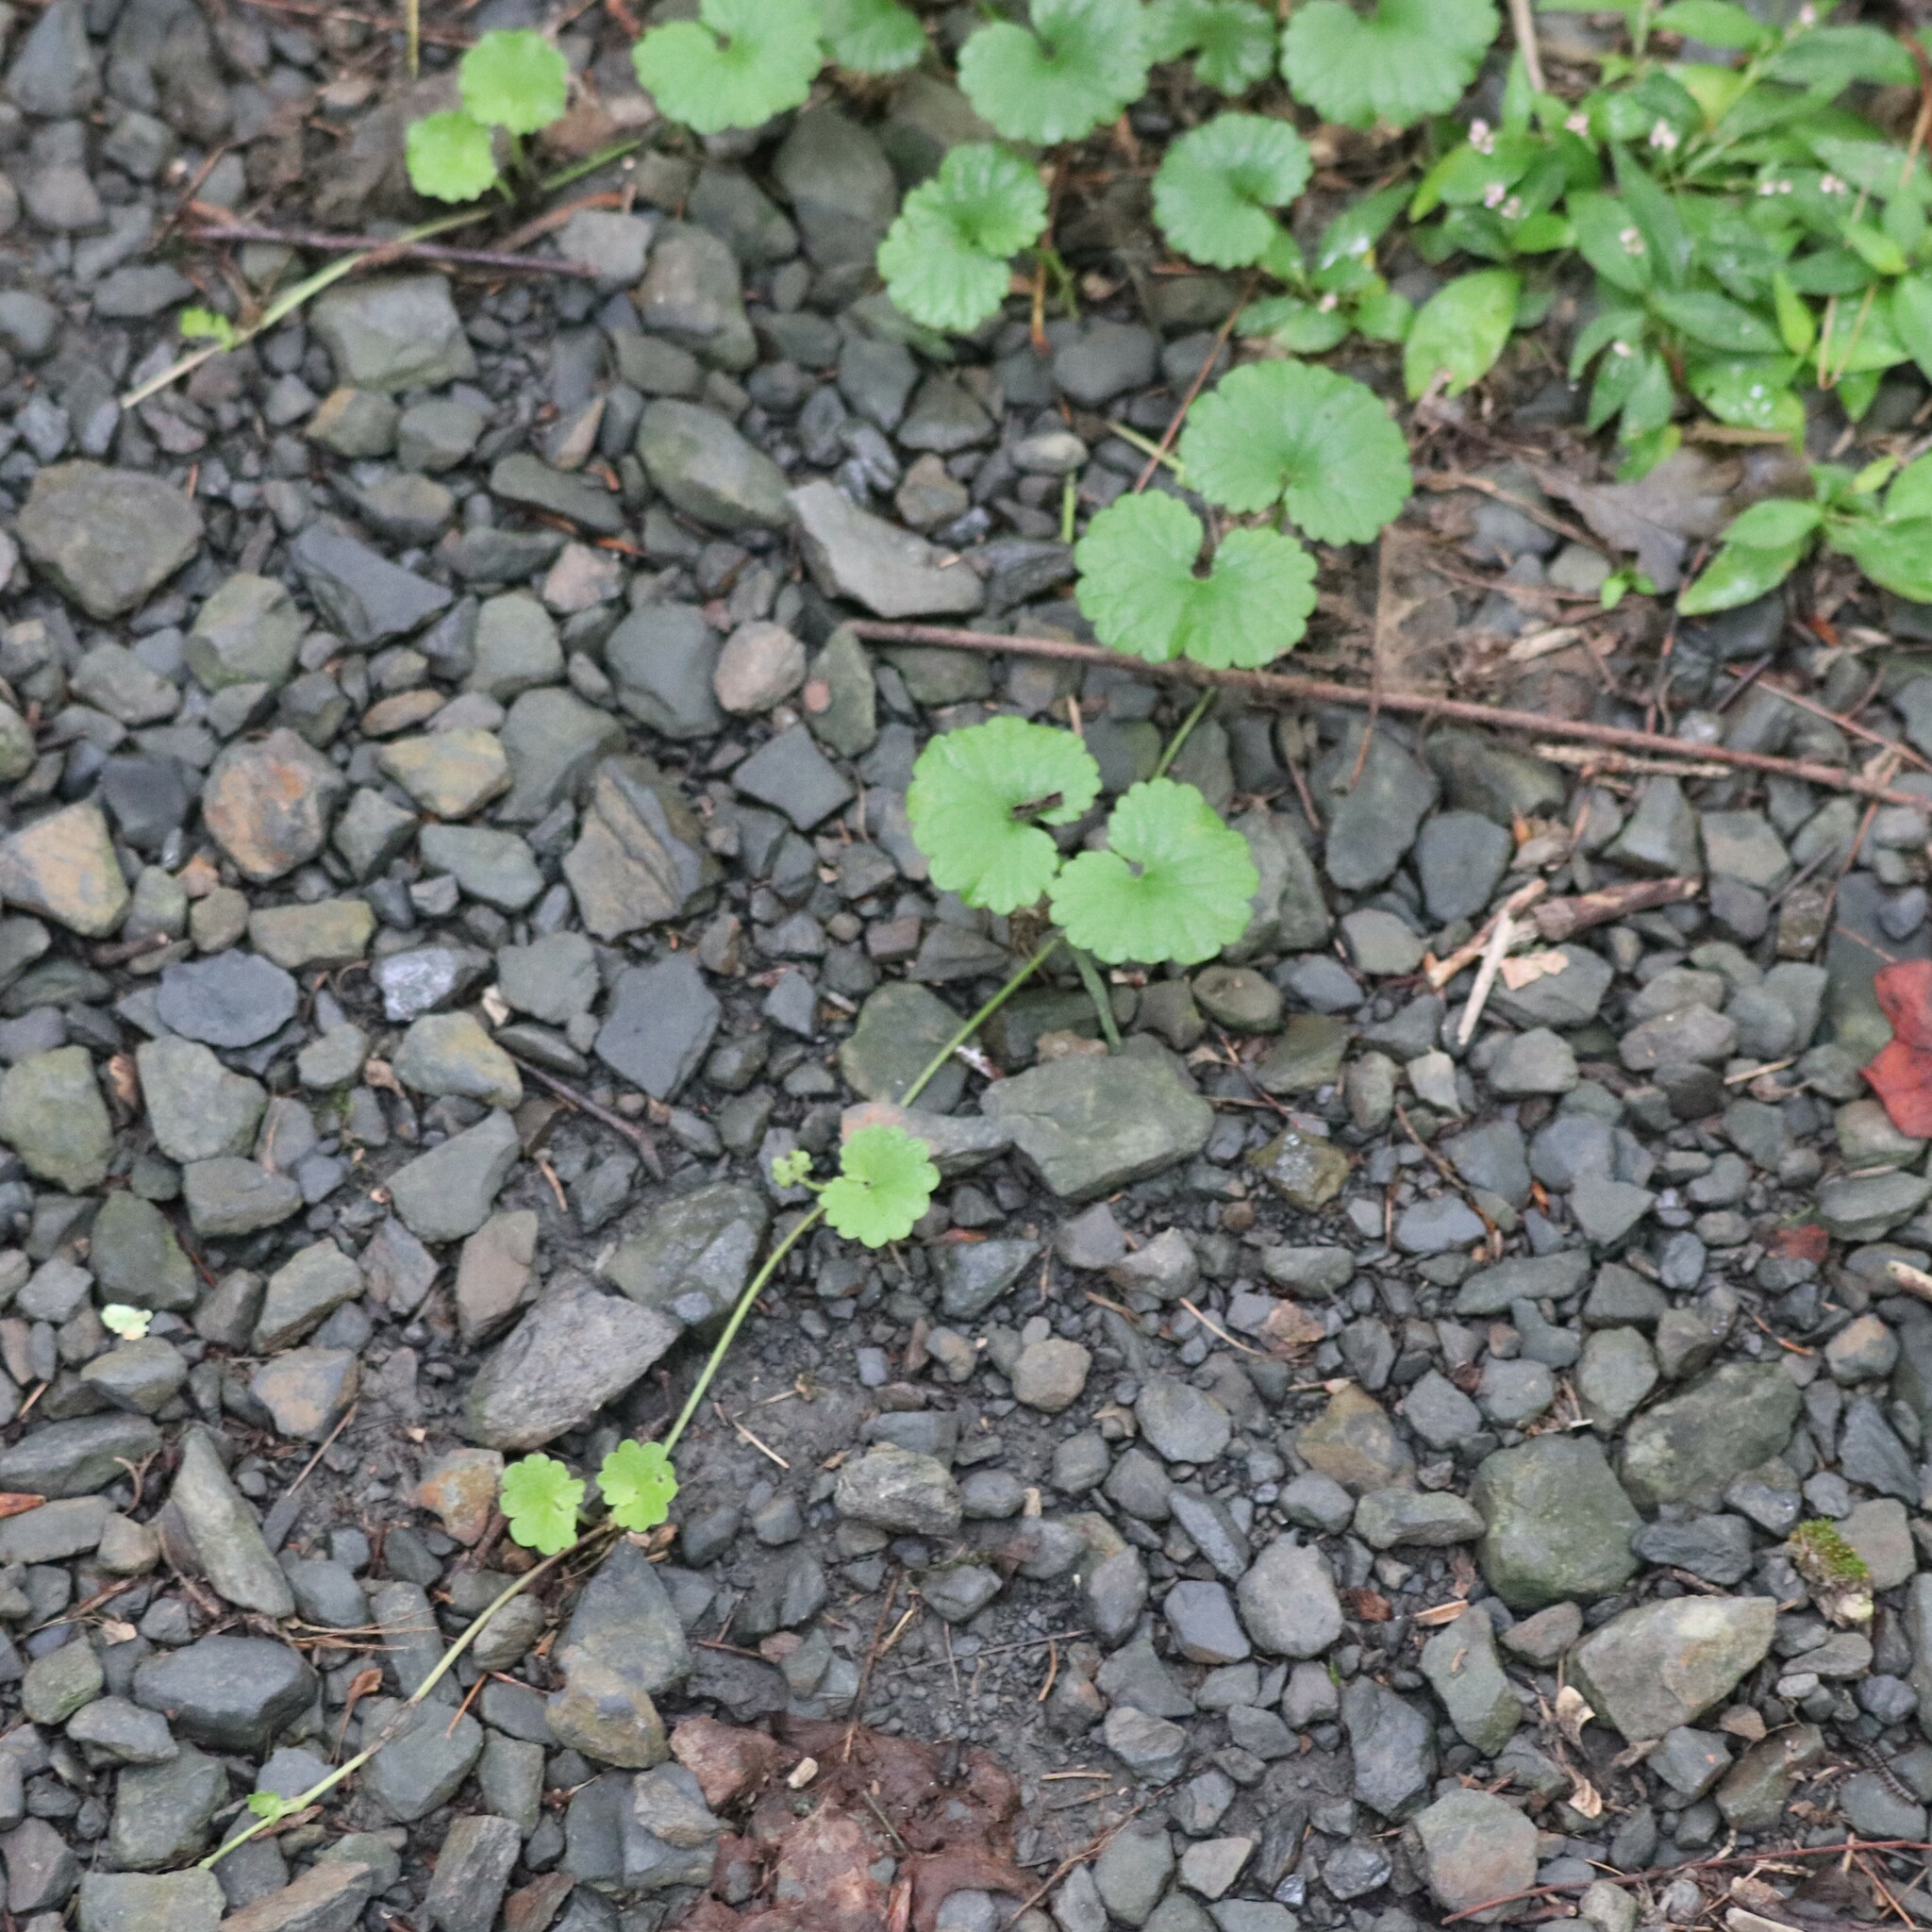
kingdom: Plantae
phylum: Tracheophyta
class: Magnoliopsida
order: Lamiales
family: Lamiaceae
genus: Glechoma
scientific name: Glechoma hederacea
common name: Ground ivy
